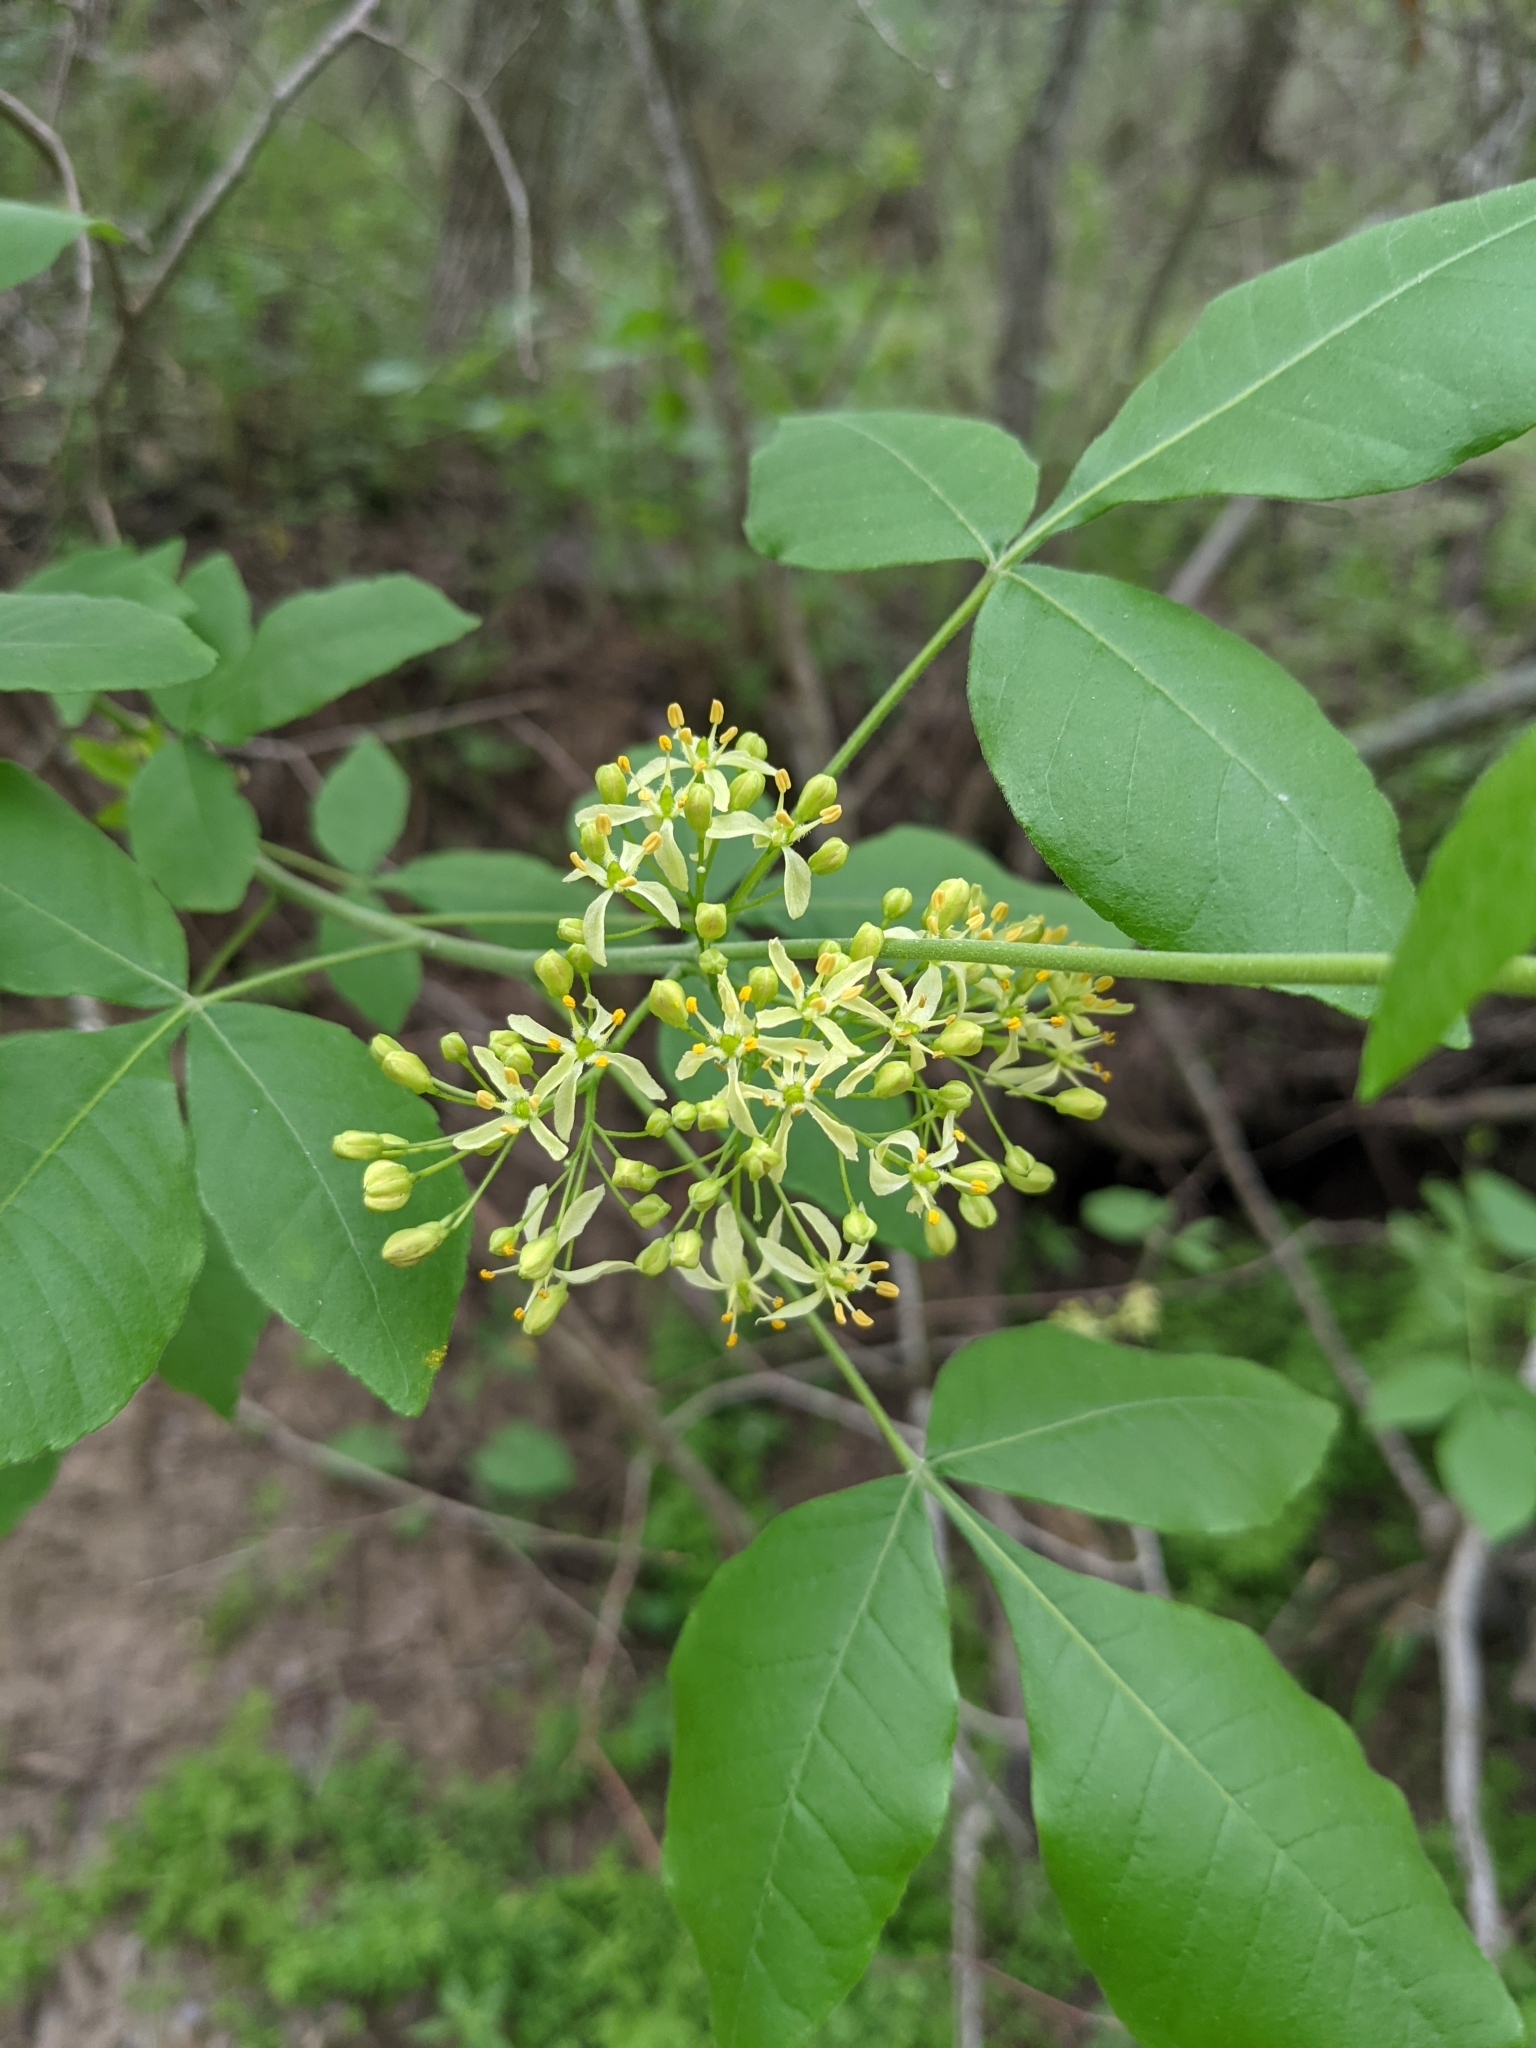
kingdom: Plantae
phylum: Tracheophyta
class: Magnoliopsida
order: Sapindales
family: Rutaceae
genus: Ptelea
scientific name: Ptelea trifoliata
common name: Common hop-tree
